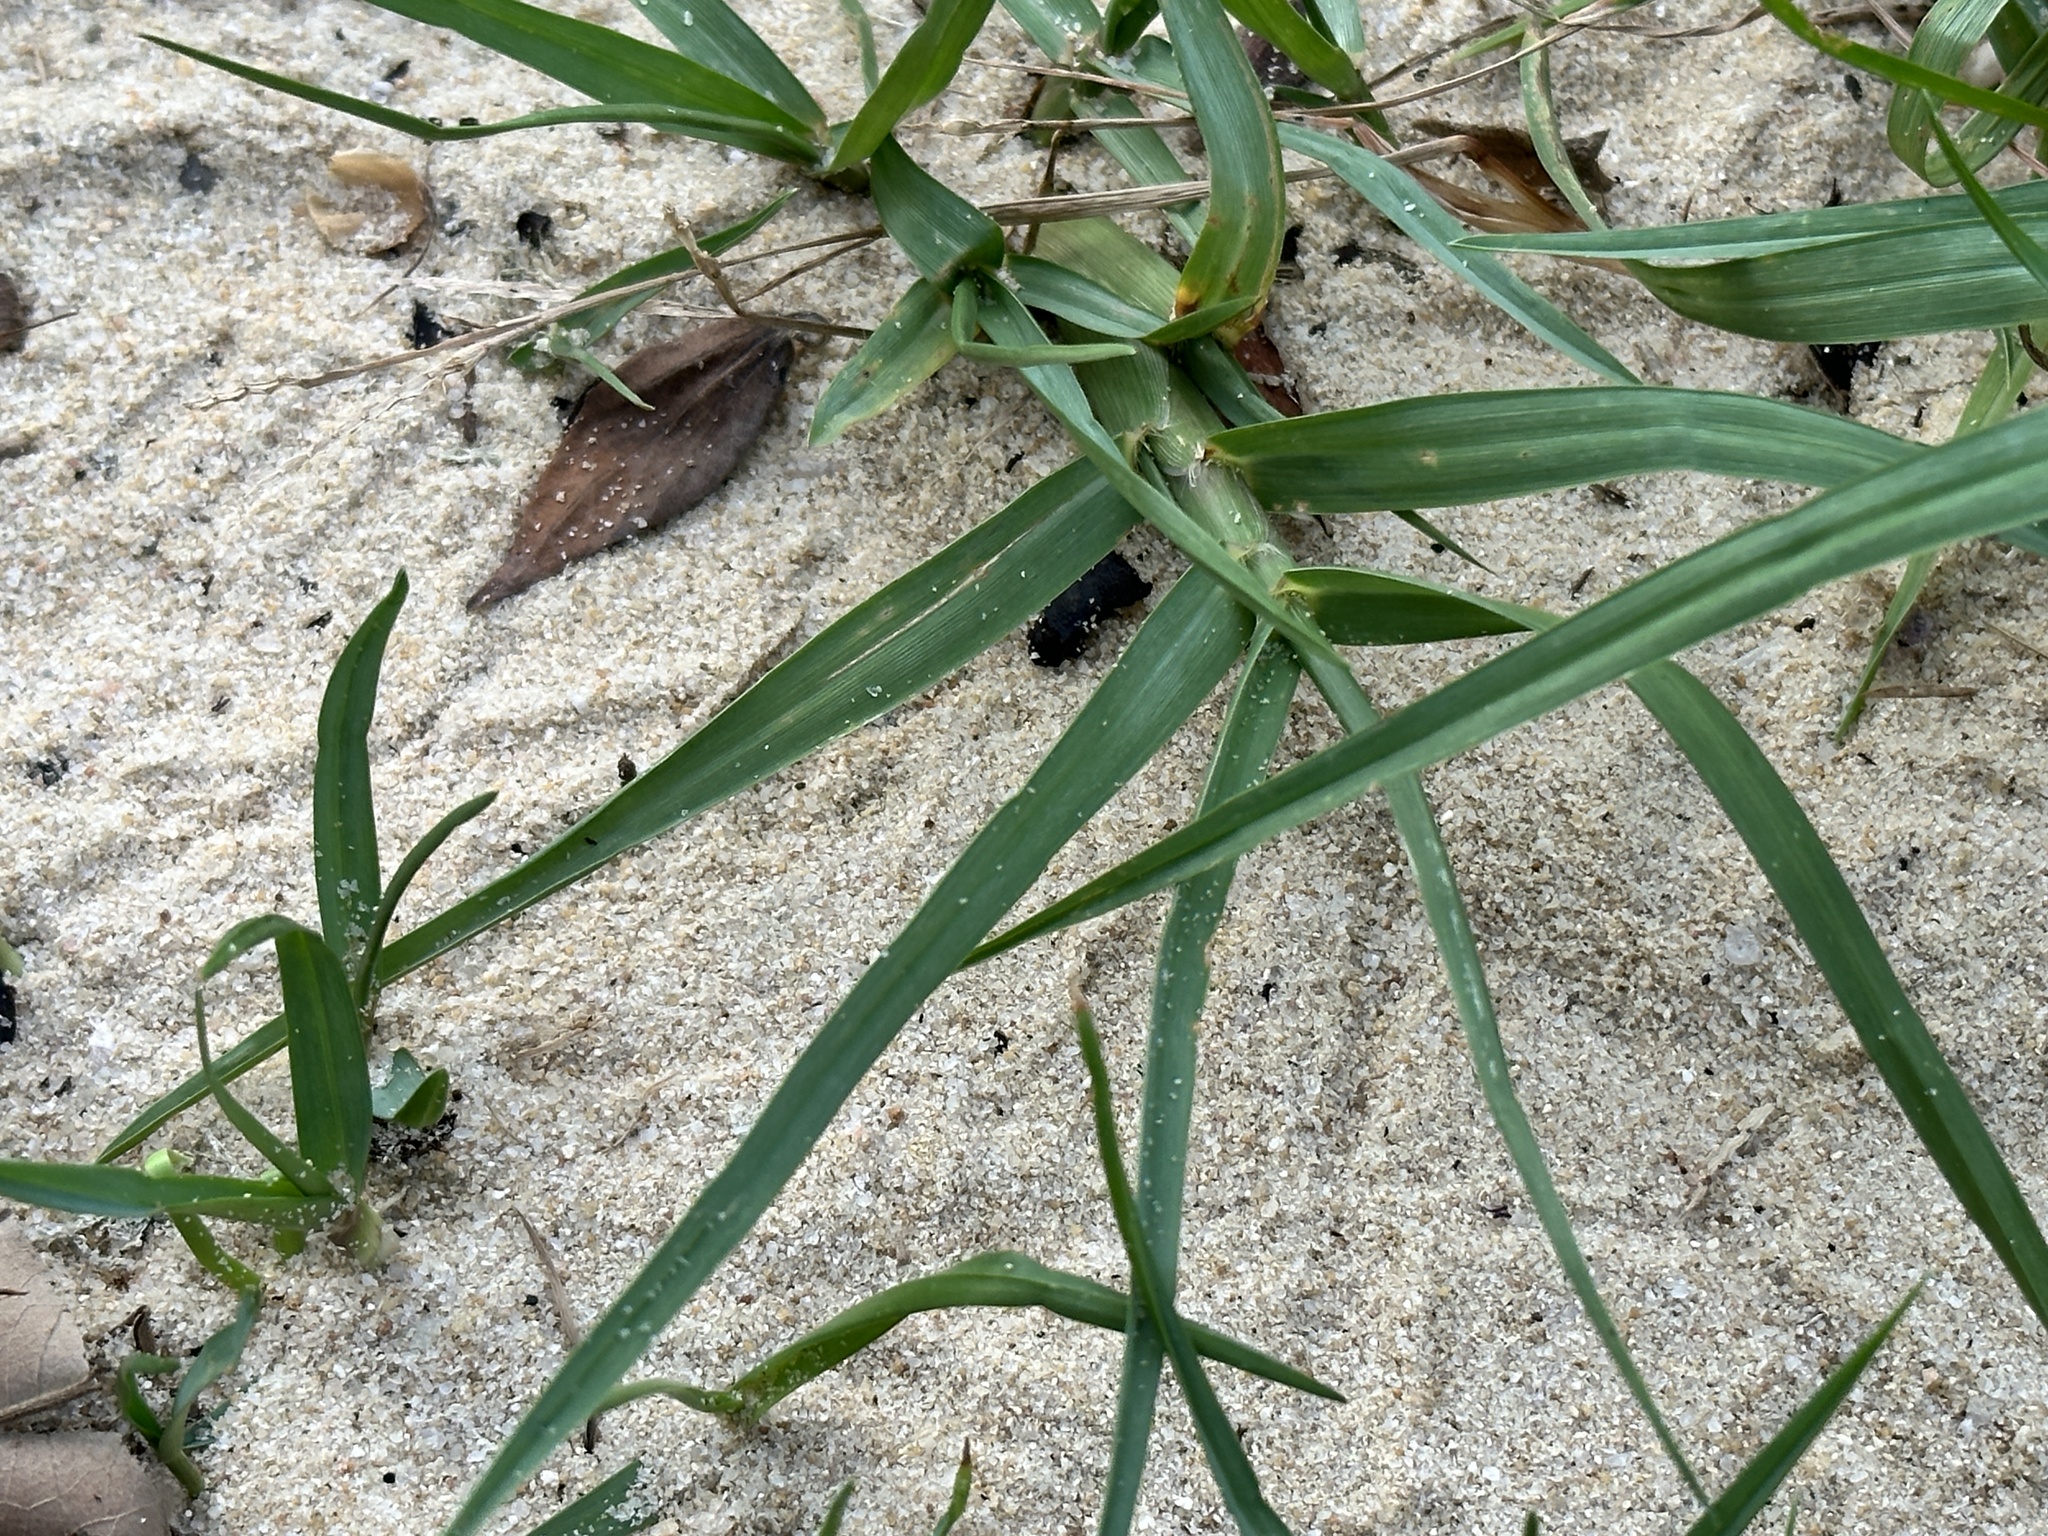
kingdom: Plantae
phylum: Tracheophyta
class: Liliopsida
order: Poales
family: Poaceae
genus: Paspalum
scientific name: Paspalum vaginatum
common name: Seashore paspalum
